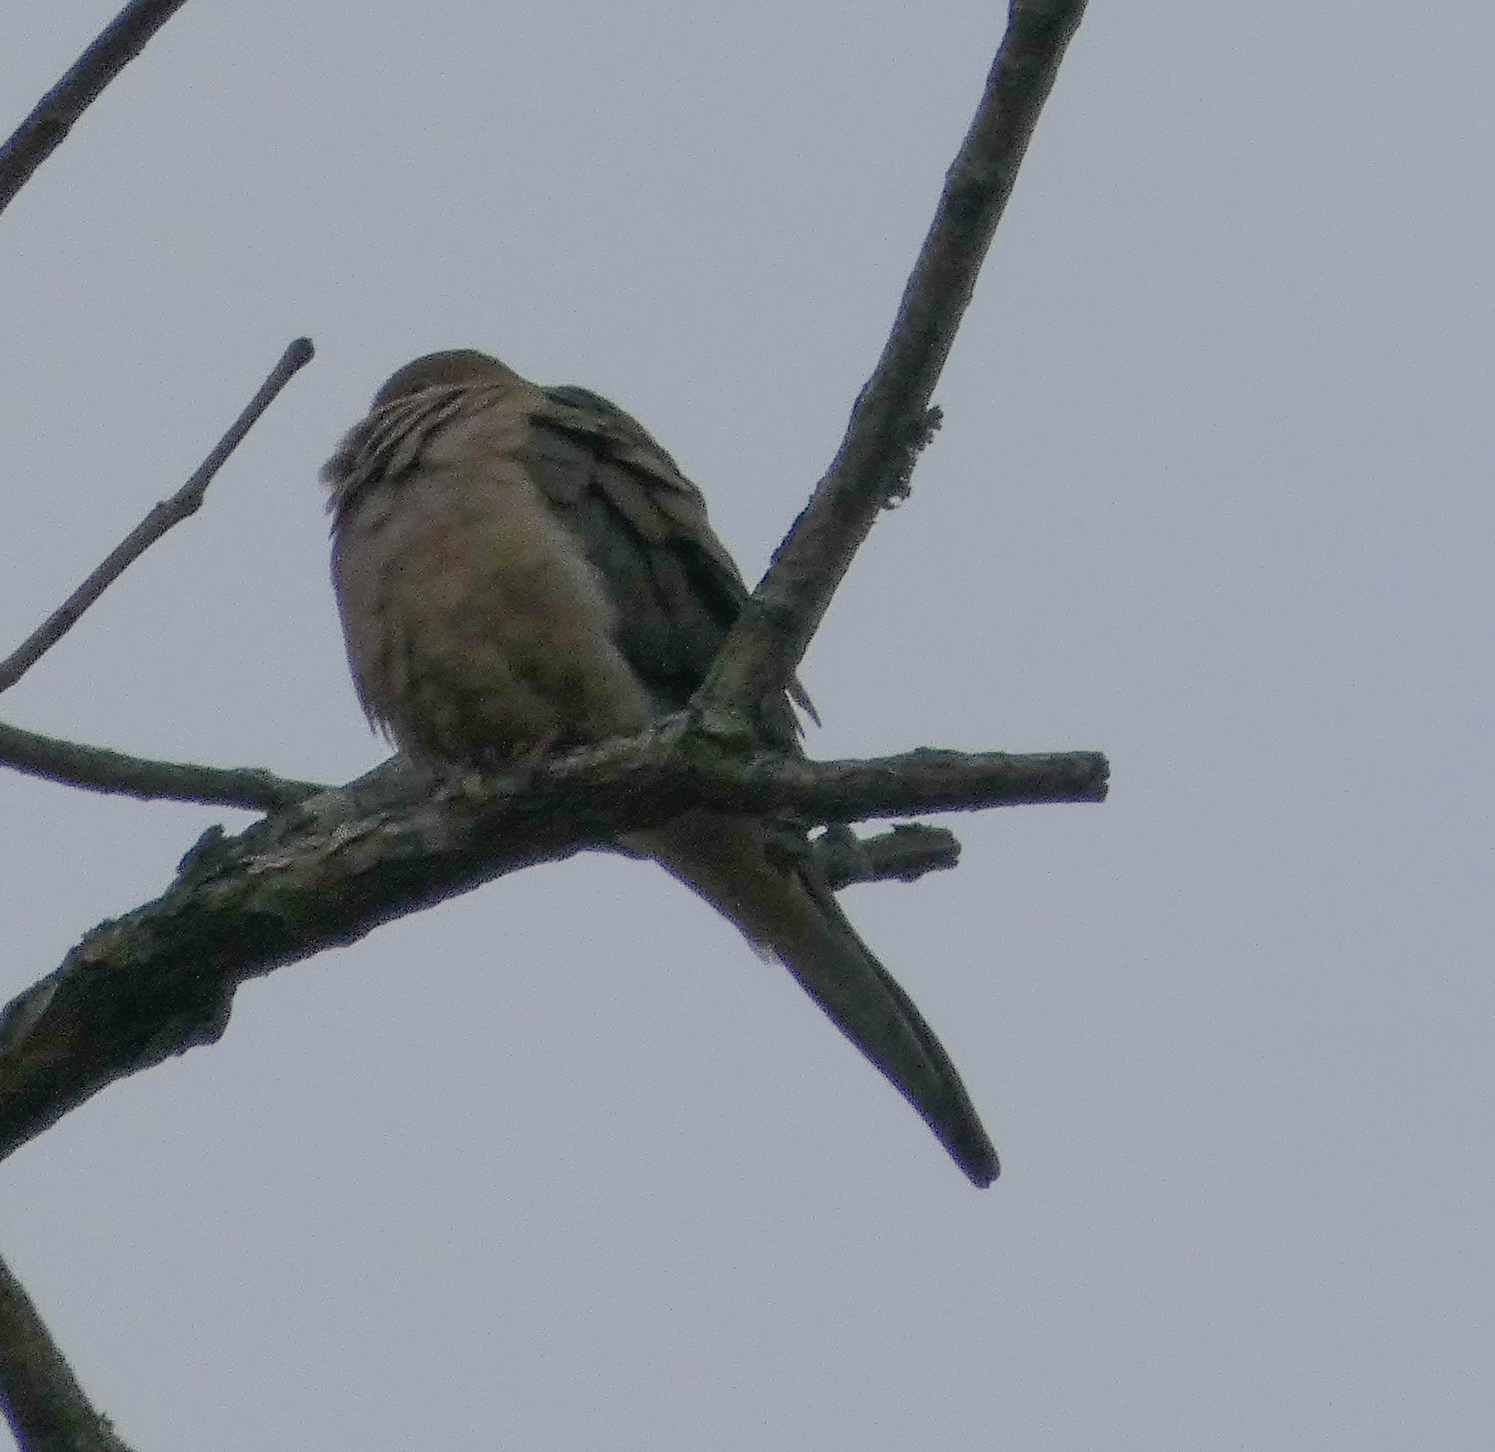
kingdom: Animalia
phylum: Chordata
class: Aves
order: Columbiformes
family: Columbidae
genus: Zenaida
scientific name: Zenaida macroura
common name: Mourning dove
